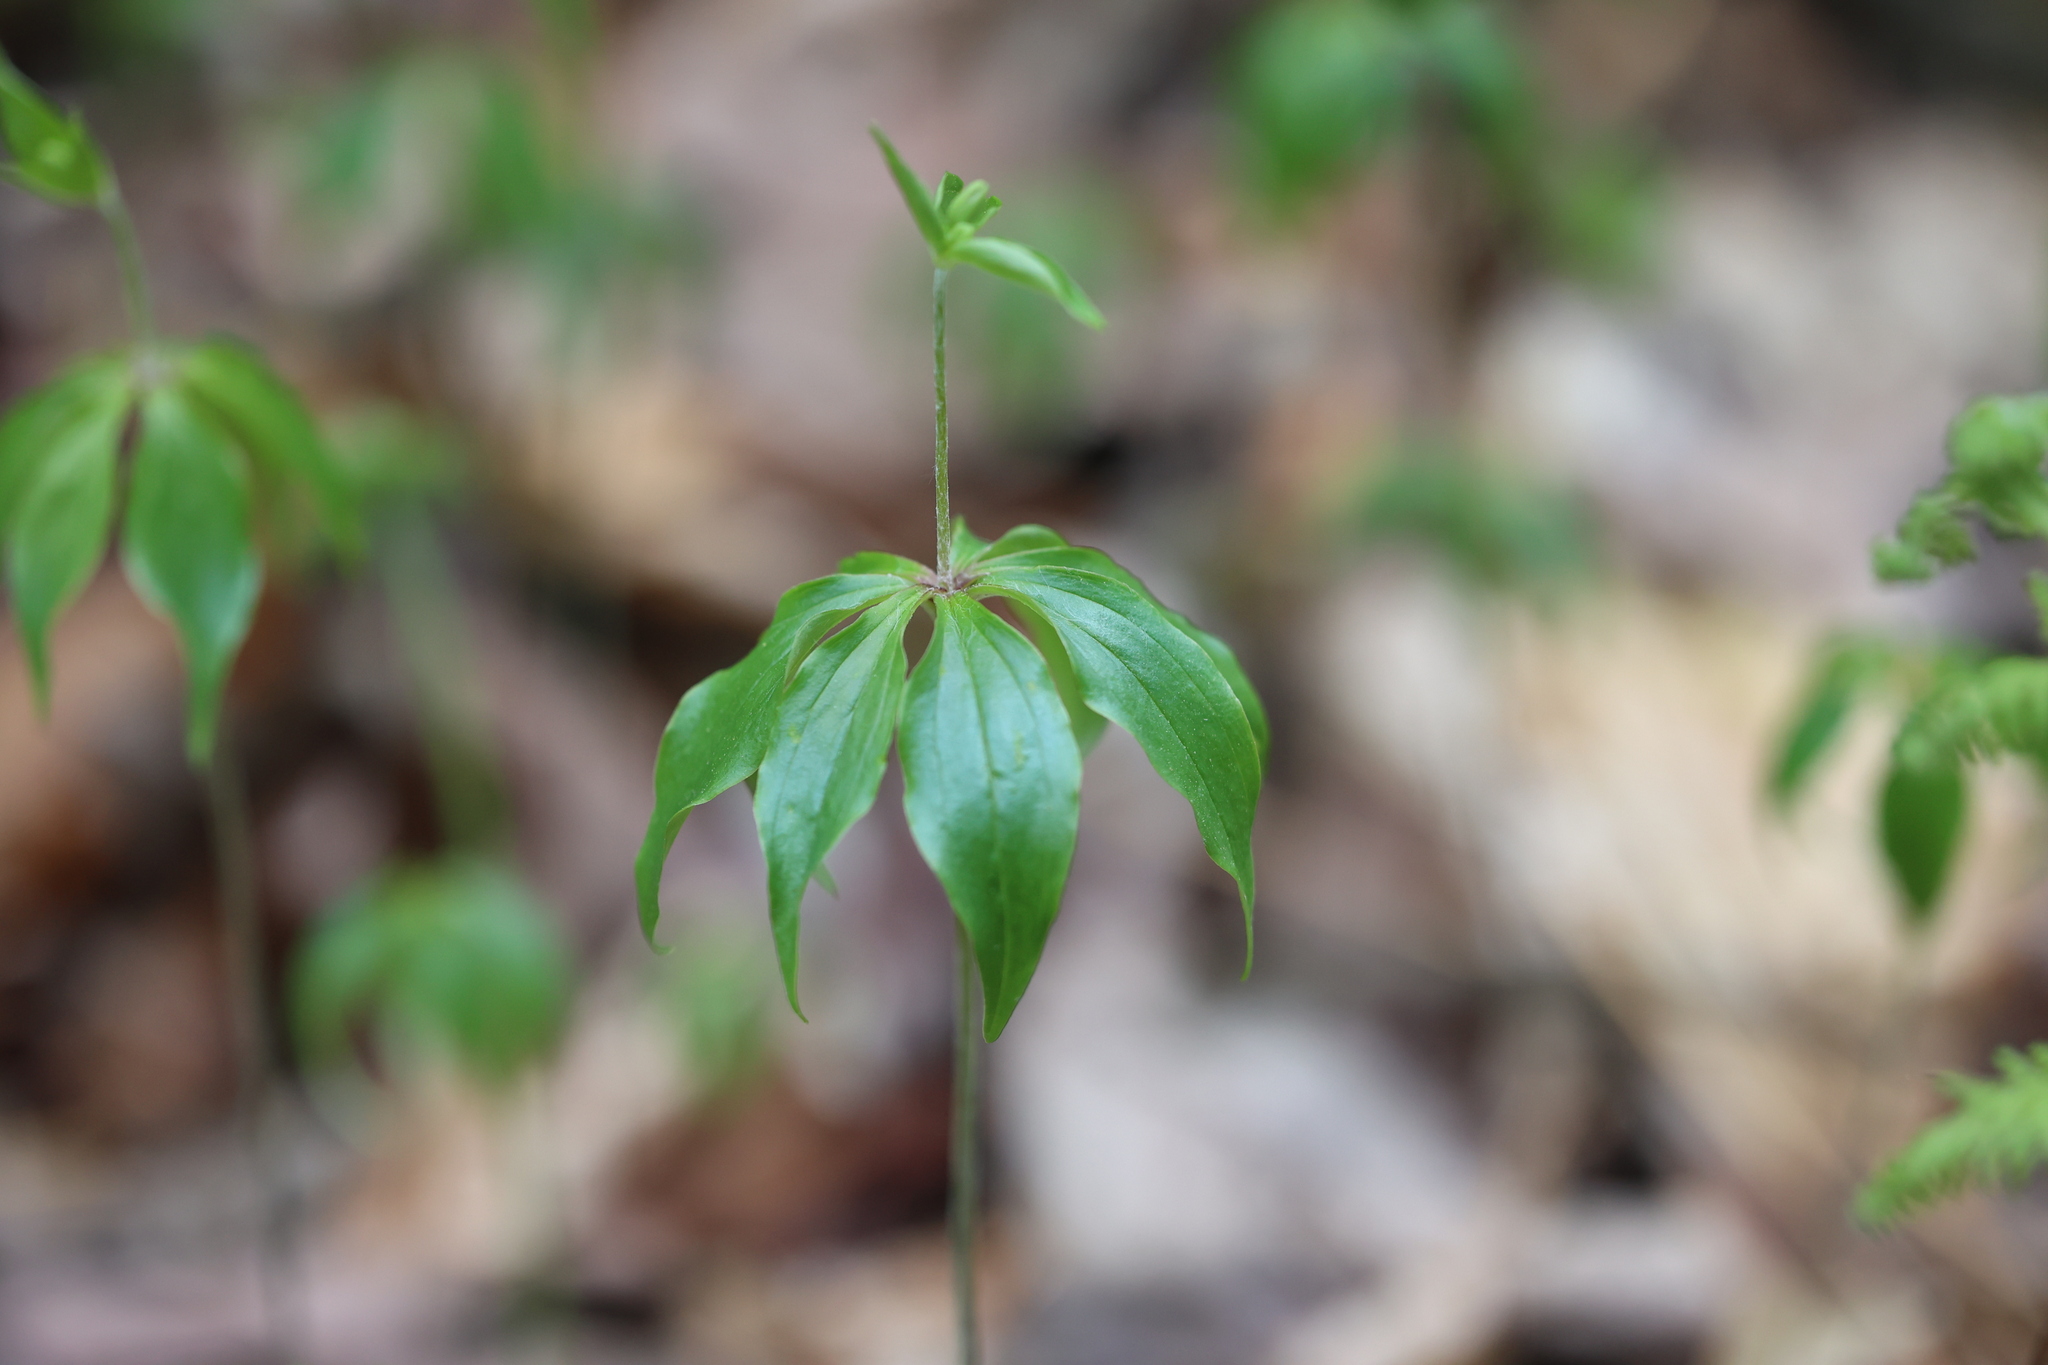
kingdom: Plantae
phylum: Tracheophyta
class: Liliopsida
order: Liliales
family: Liliaceae
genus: Medeola
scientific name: Medeola virginiana
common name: Indian cucumber-root
